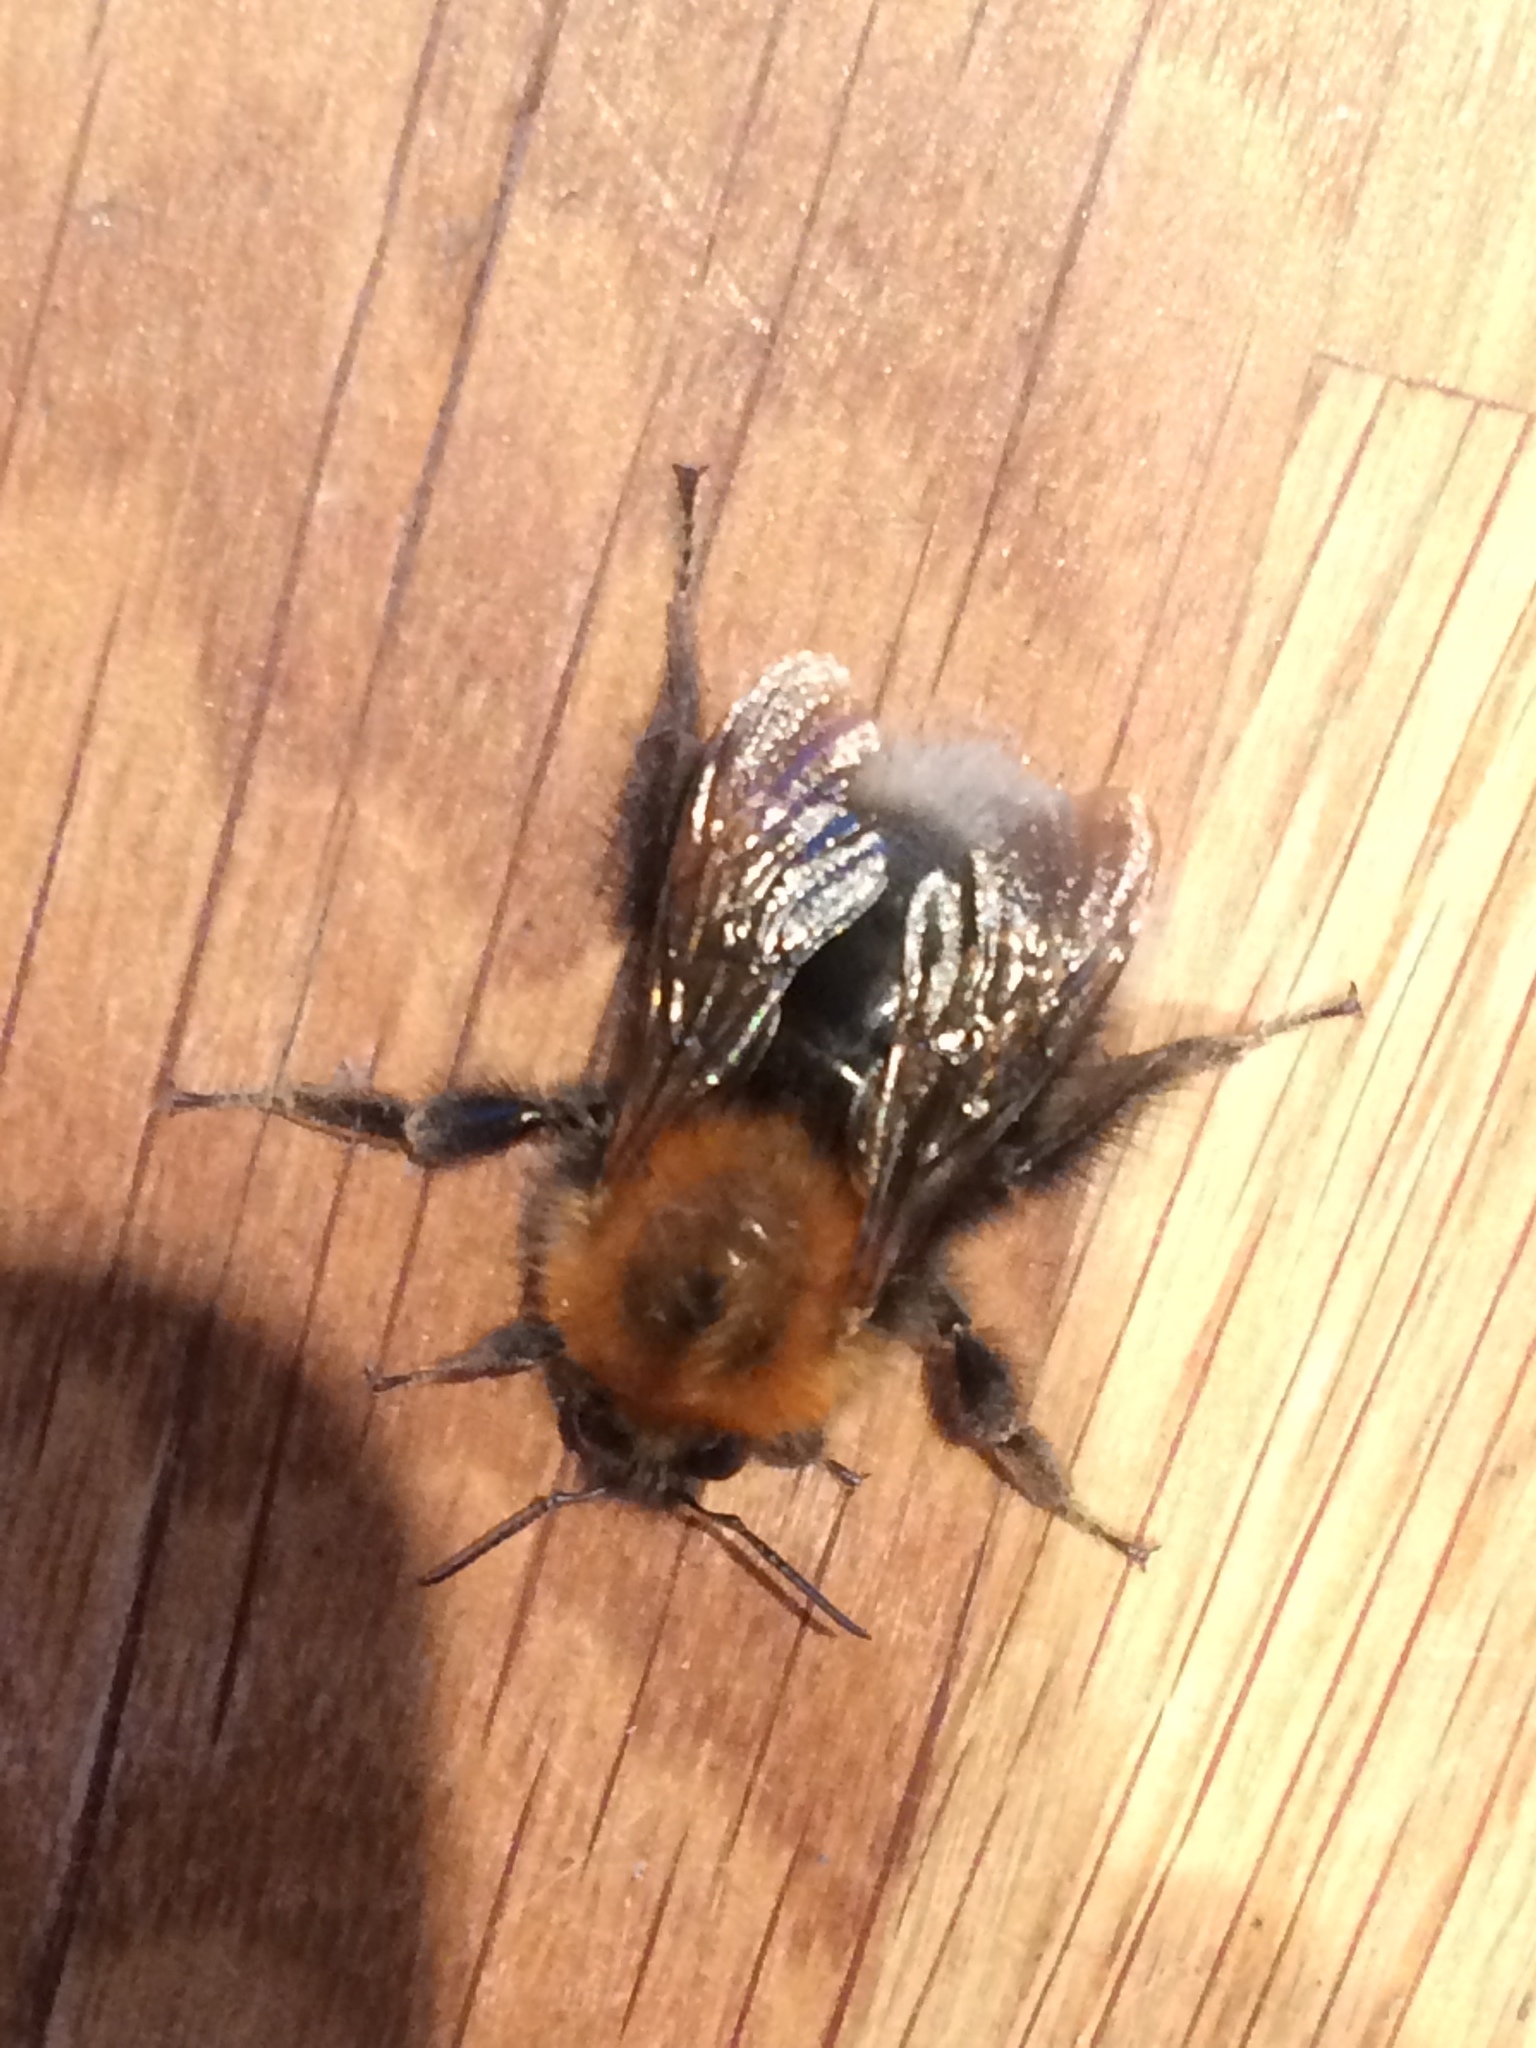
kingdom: Animalia
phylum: Arthropoda
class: Insecta
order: Hymenoptera
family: Apidae
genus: Bombus
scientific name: Bombus hypnorum
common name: New garden bumblebee
